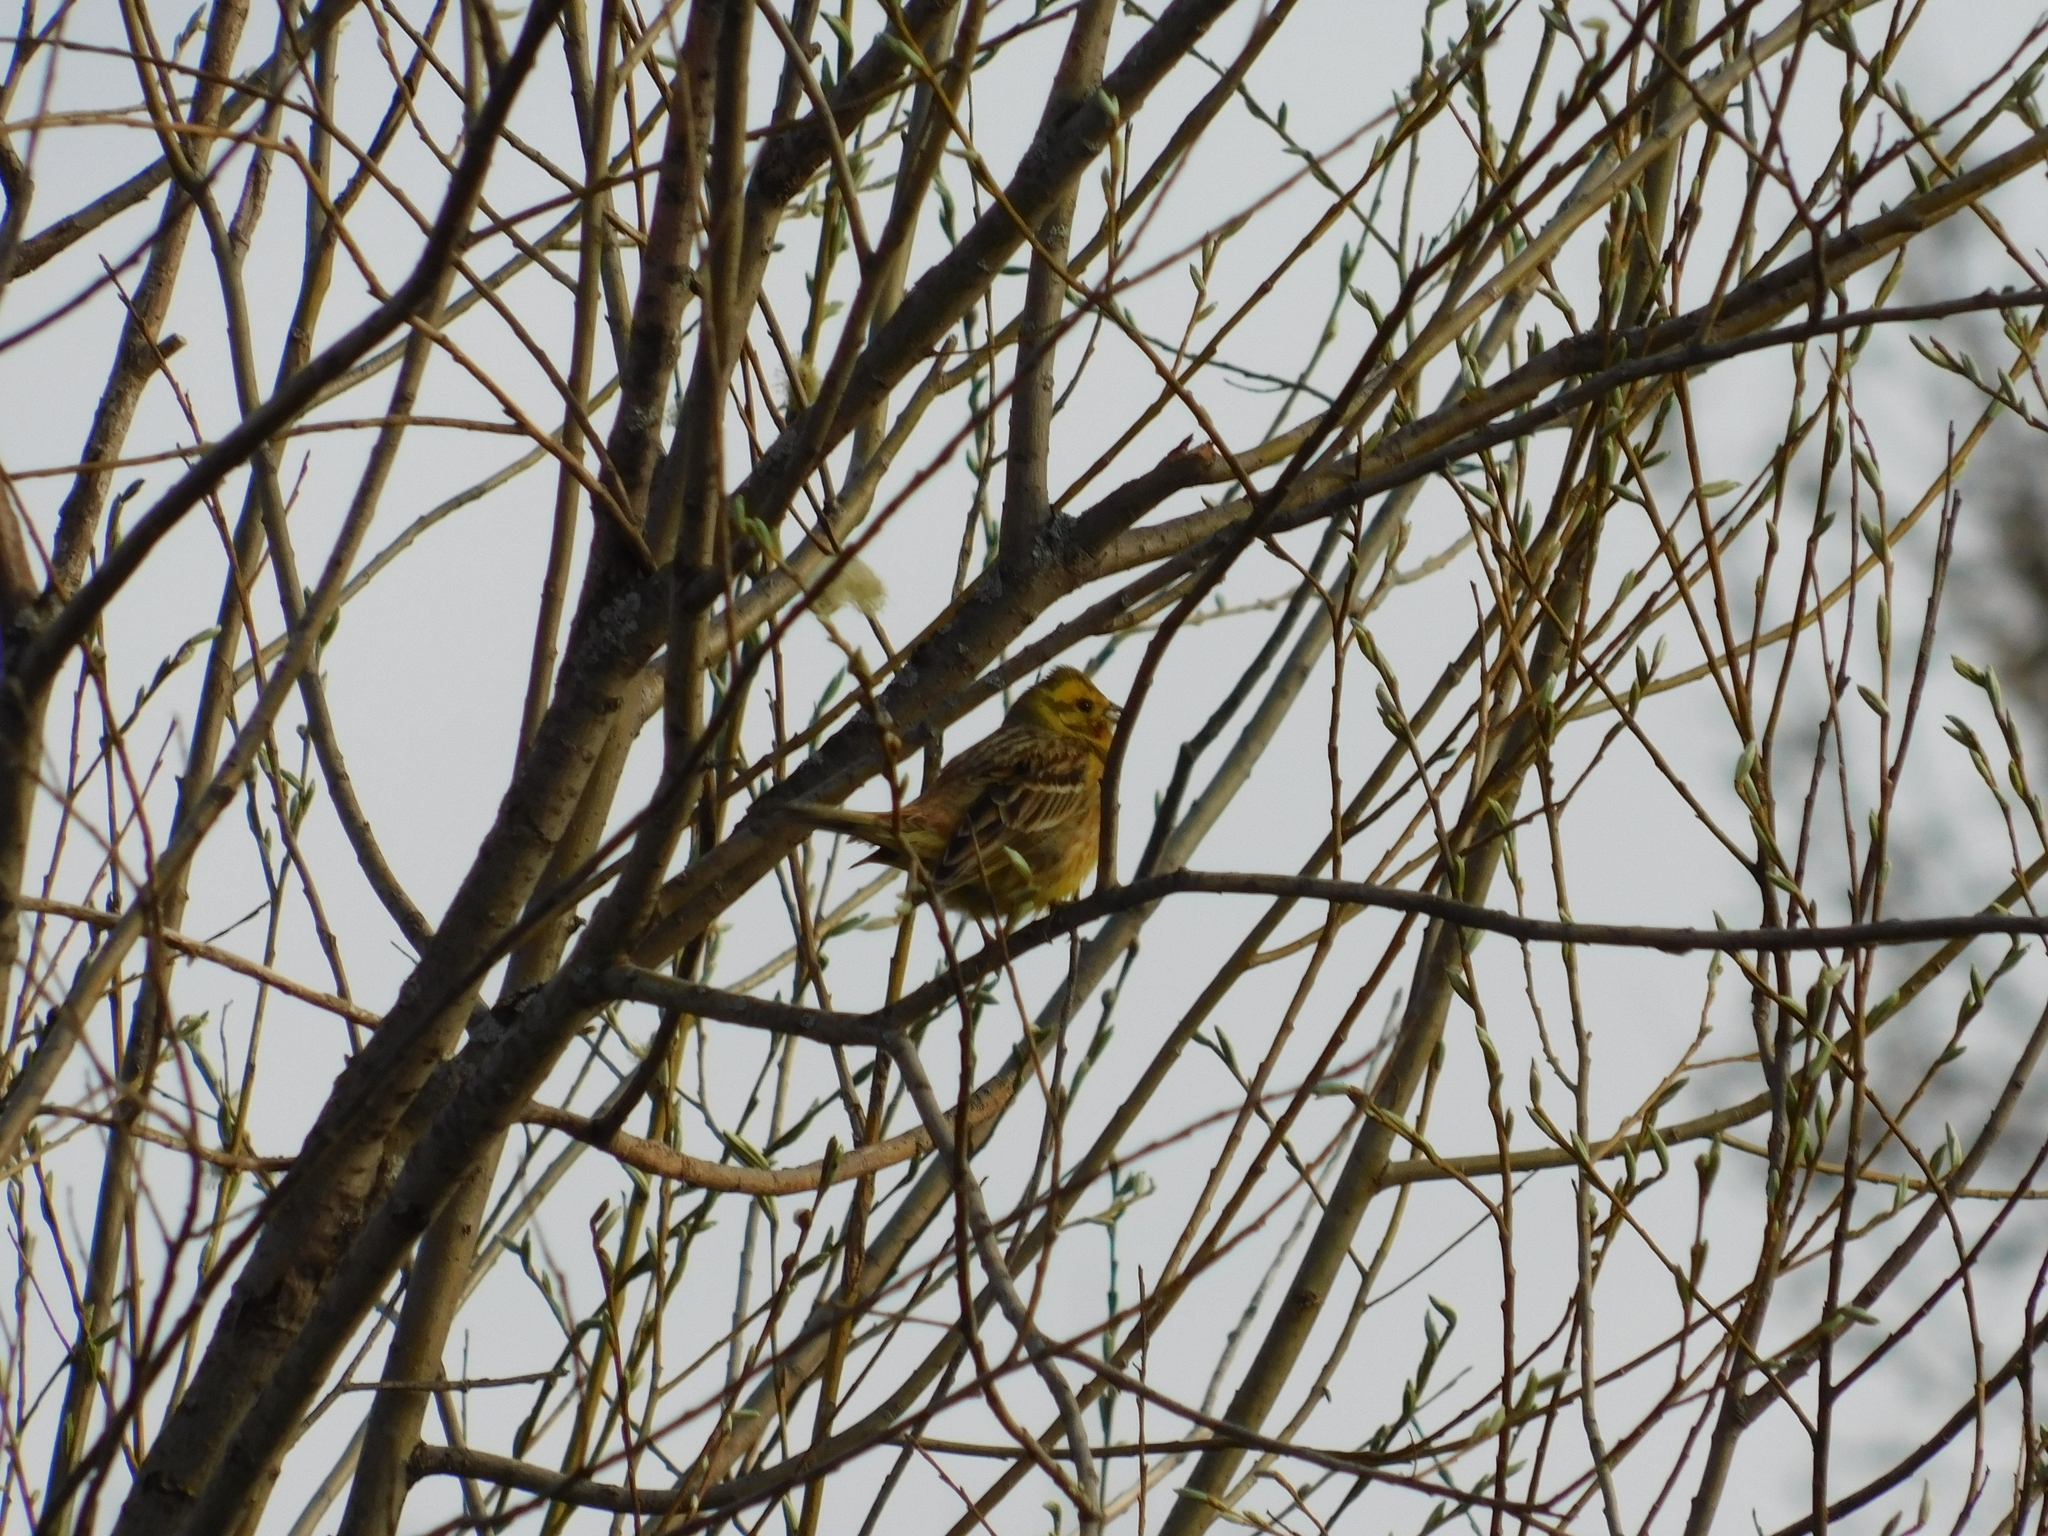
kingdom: Animalia
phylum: Chordata
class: Aves
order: Passeriformes
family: Emberizidae
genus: Emberiza
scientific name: Emberiza
